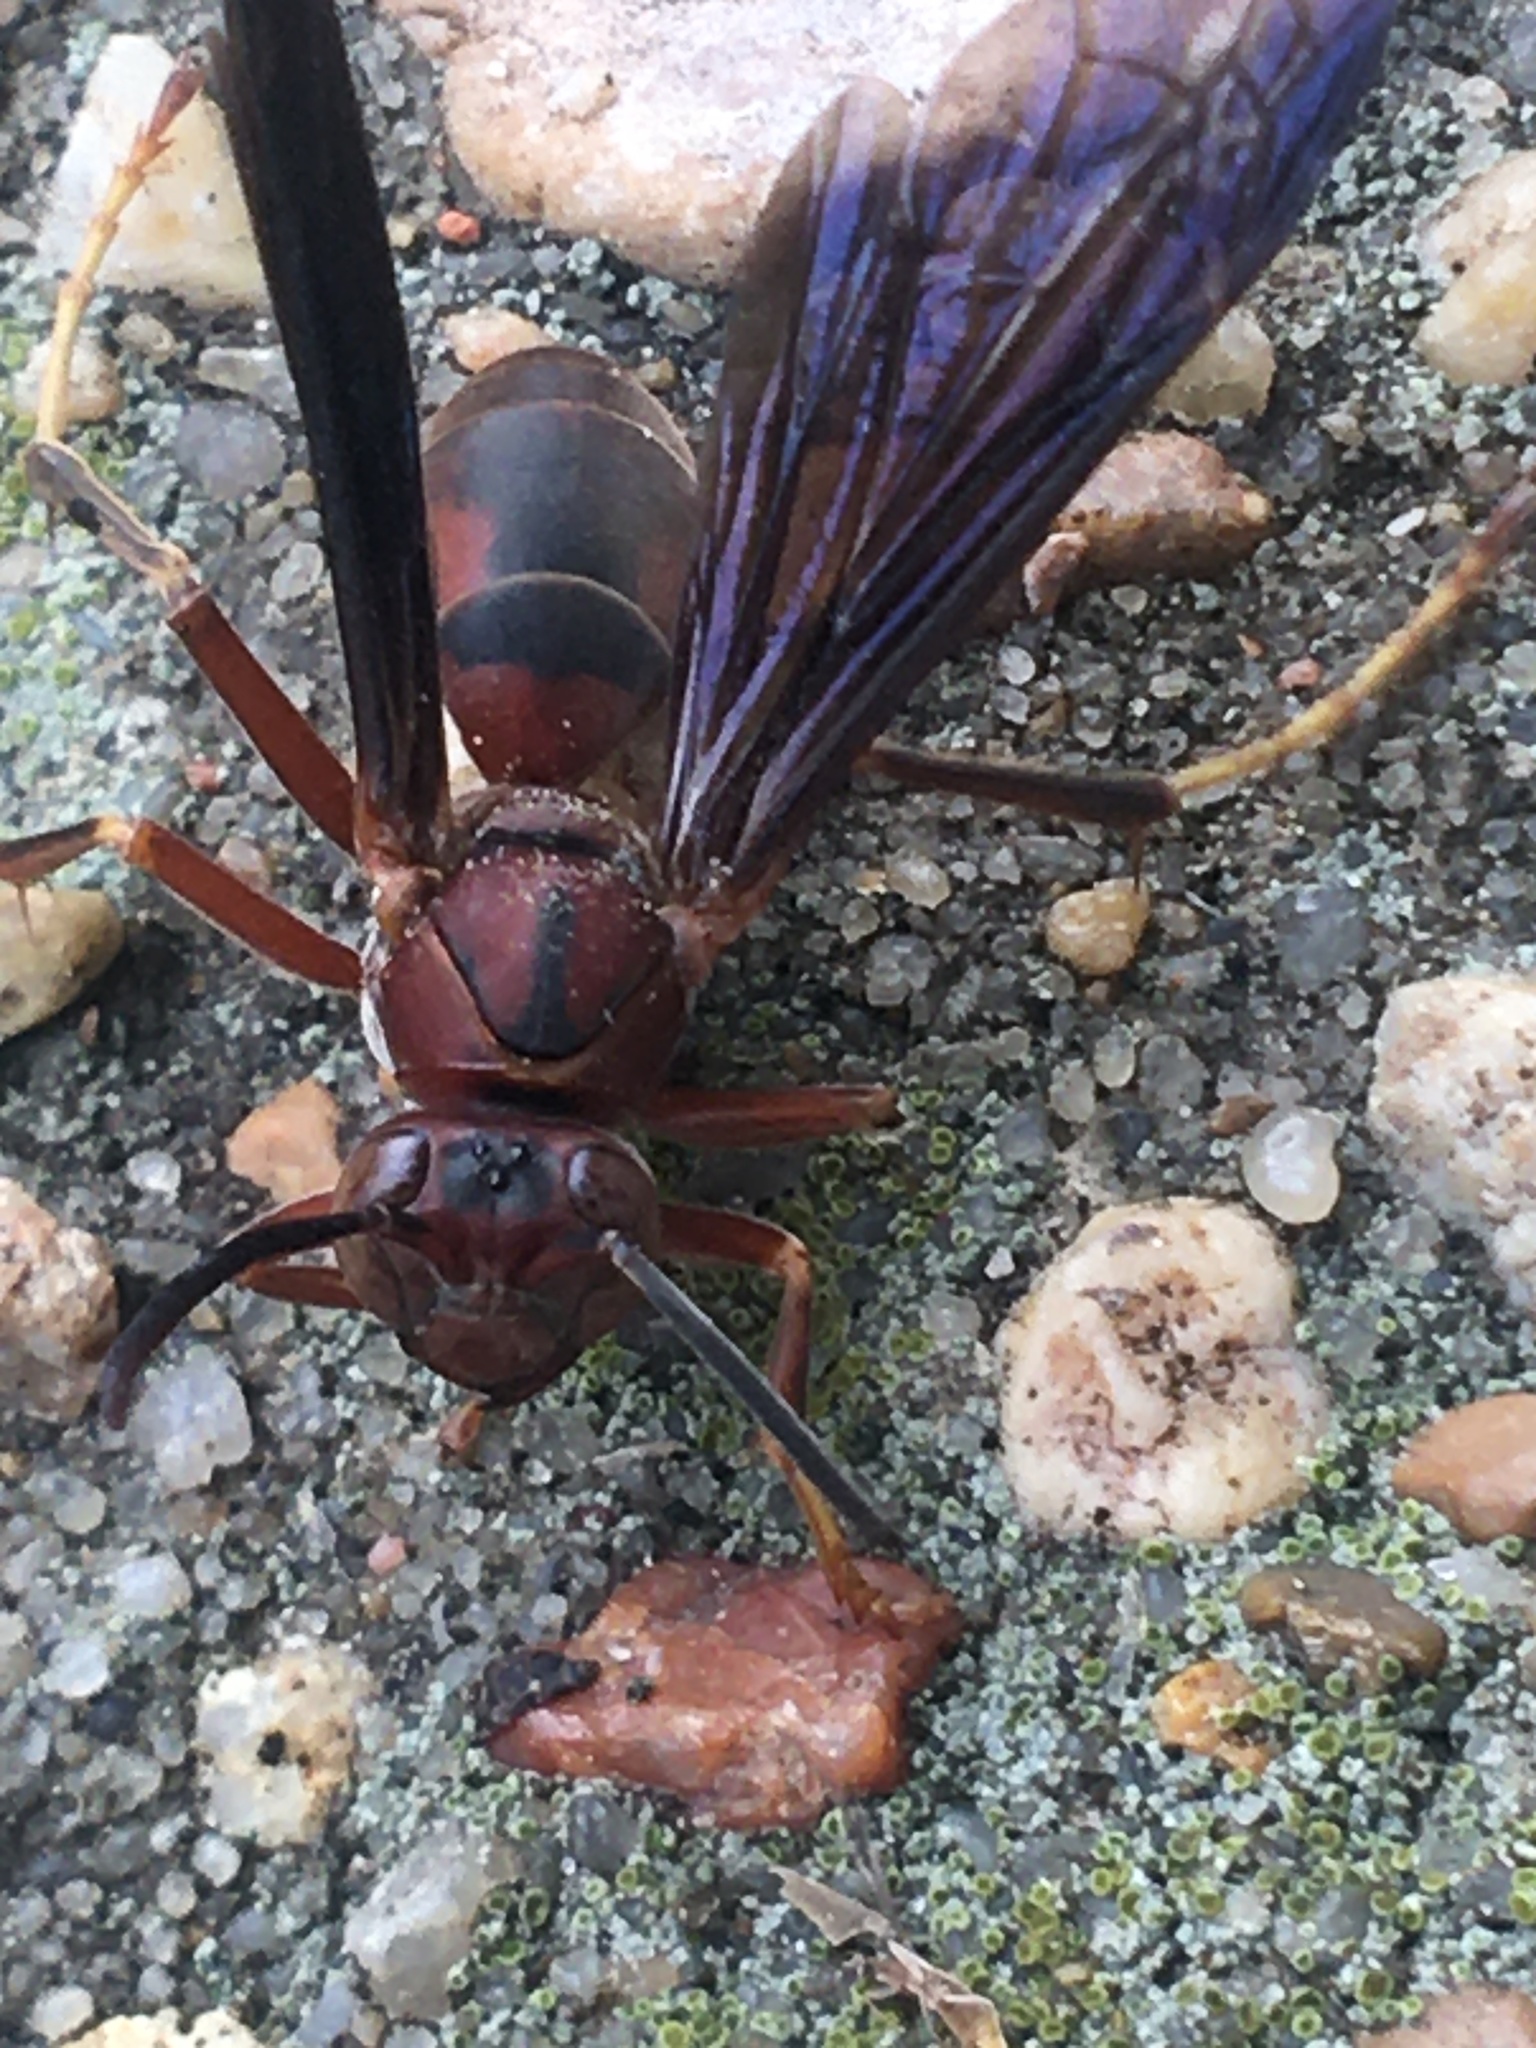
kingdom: Animalia
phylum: Arthropoda
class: Insecta
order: Hymenoptera
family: Eumenidae
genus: Polistes
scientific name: Polistes metricus
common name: Metric paper wasp
